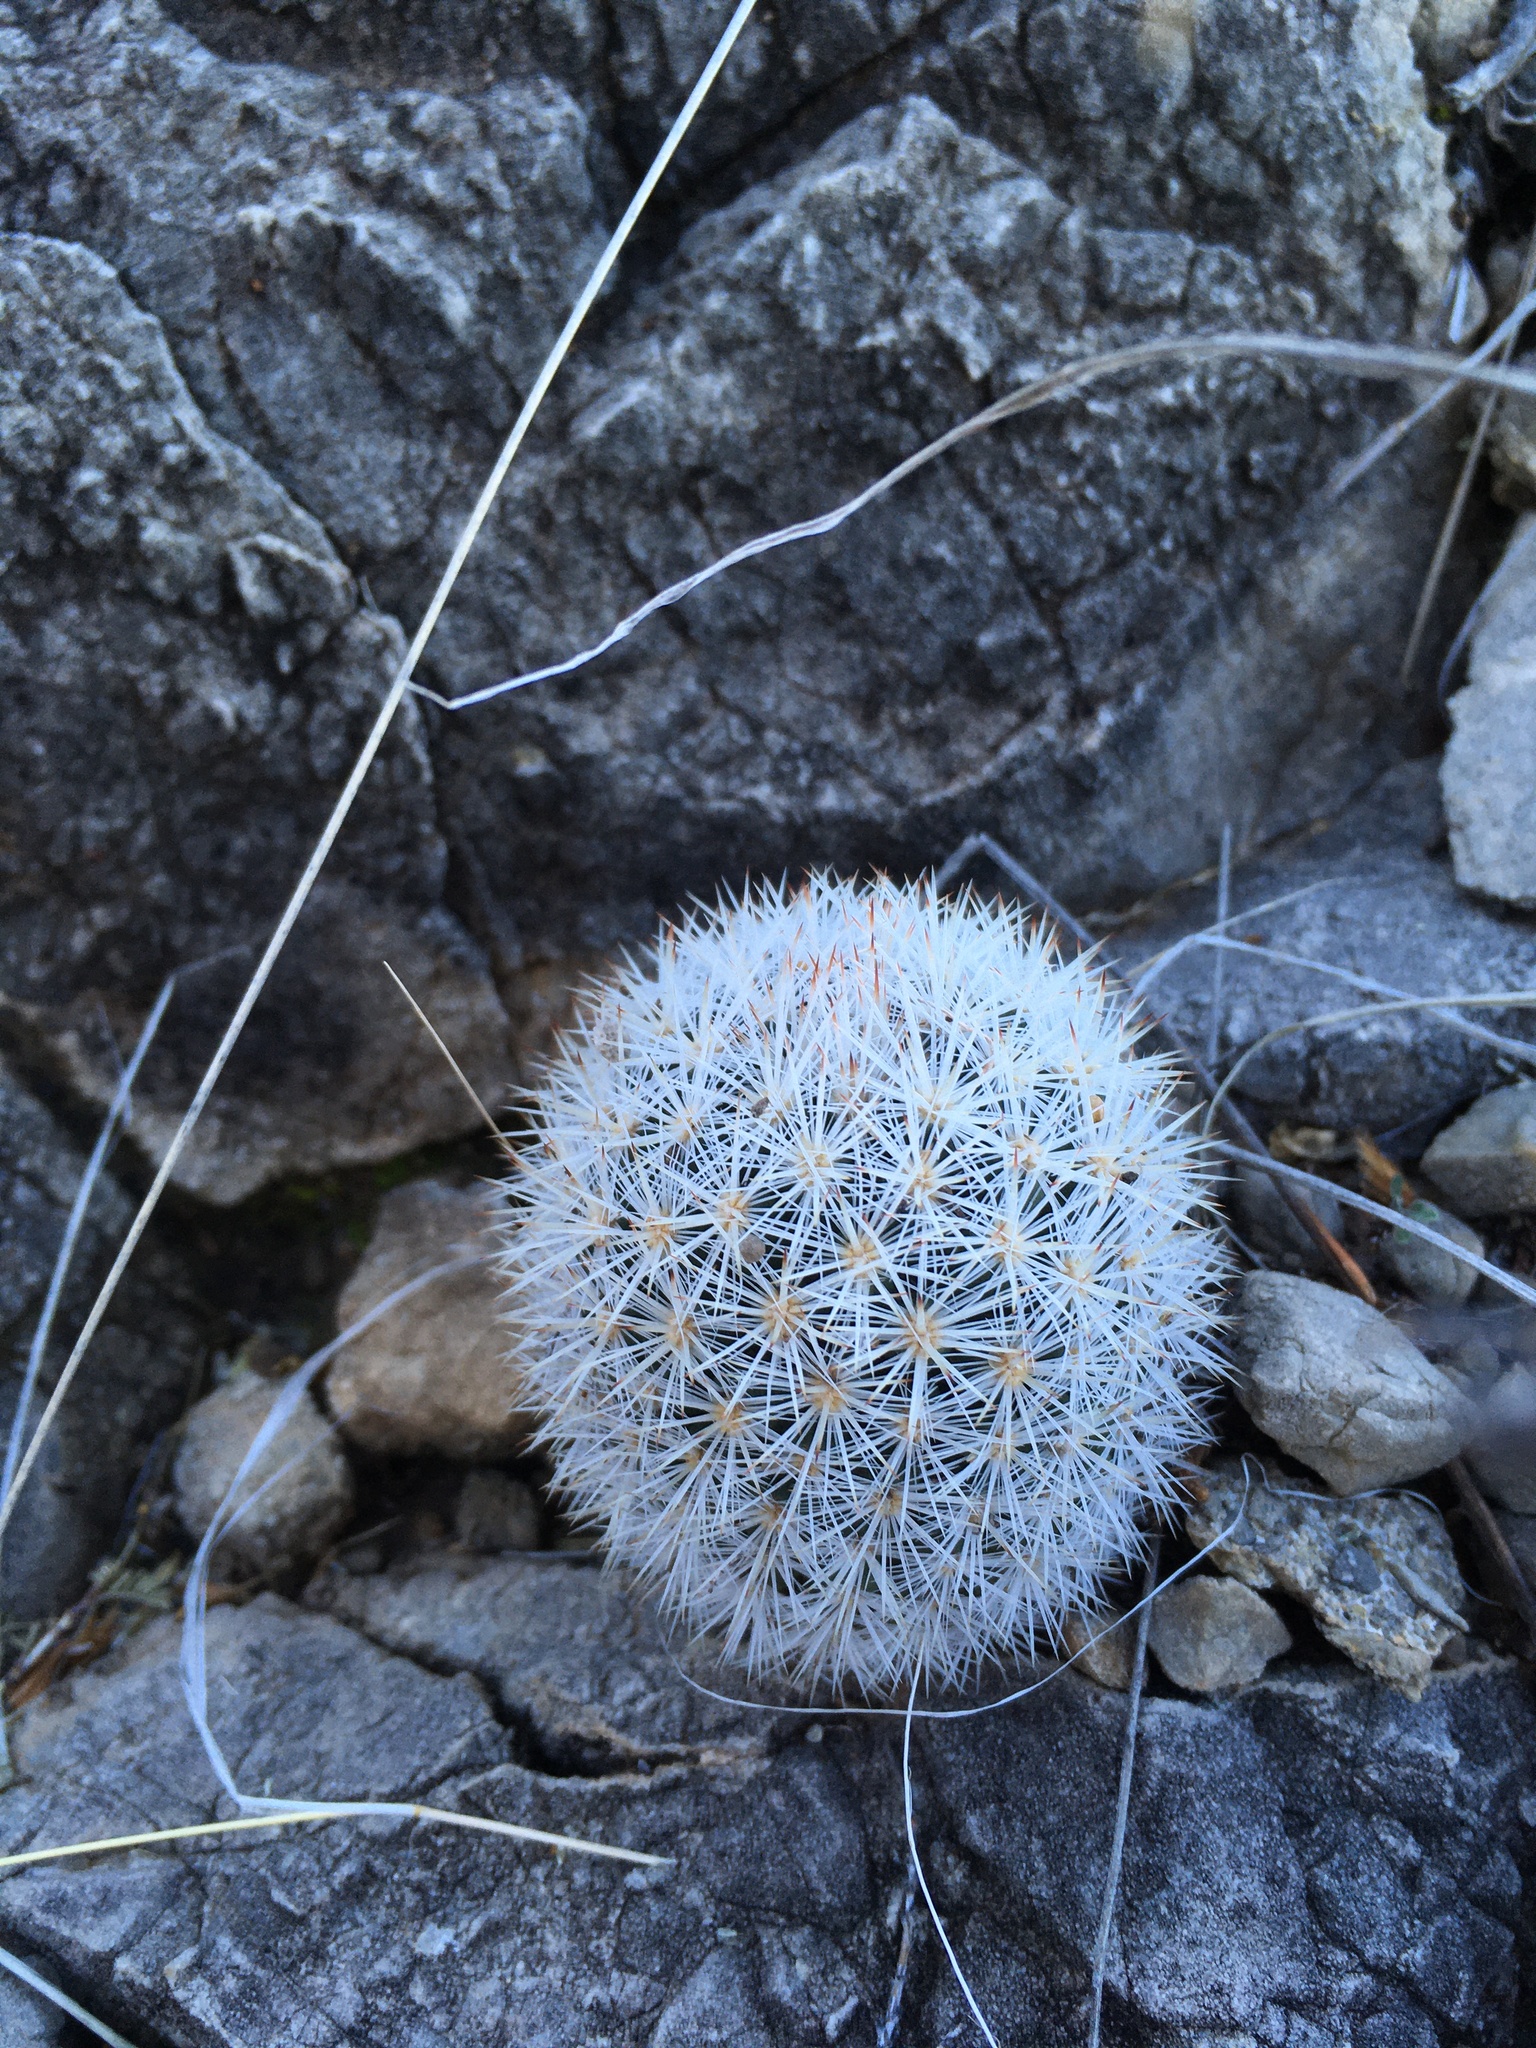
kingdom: Plantae
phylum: Tracheophyta
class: Magnoliopsida
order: Caryophyllales
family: Cactaceae
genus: Pelecyphora
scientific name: Pelecyphora sneedii
